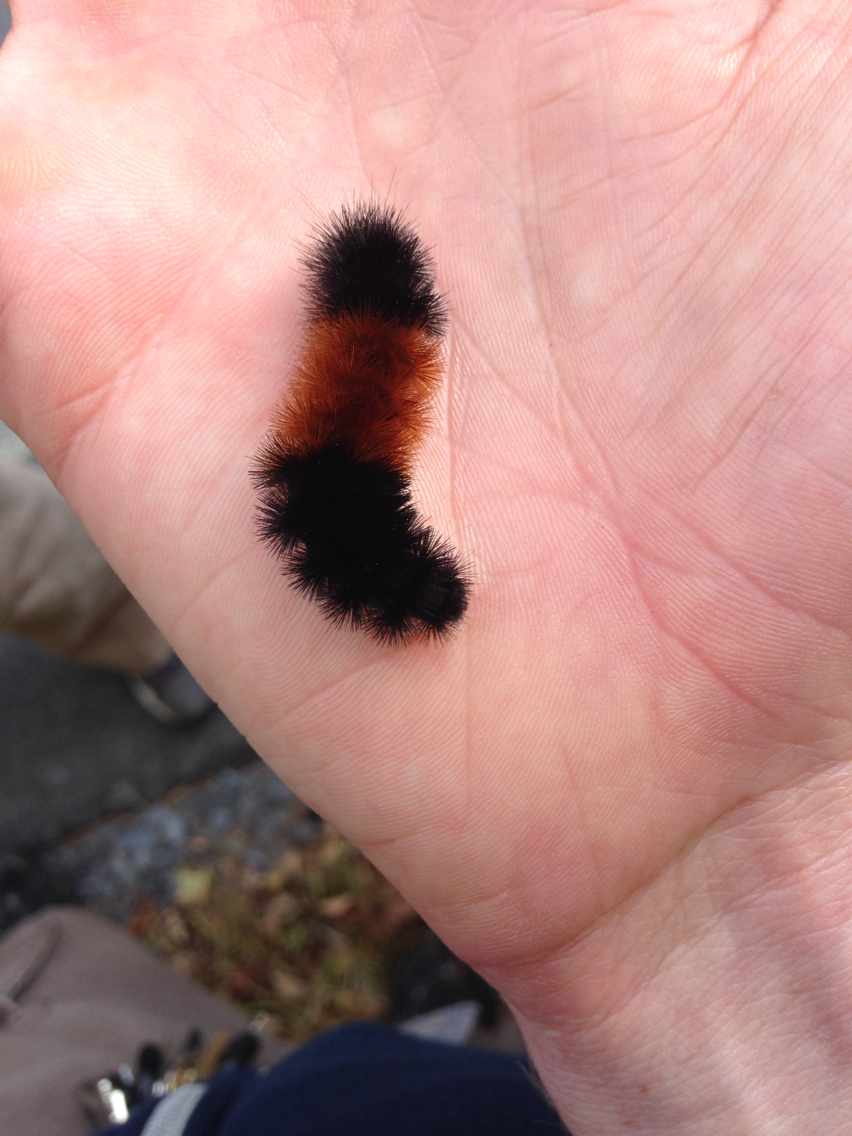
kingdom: Animalia
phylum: Arthropoda
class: Insecta
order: Lepidoptera
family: Erebidae
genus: Pyrrharctia
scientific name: Pyrrharctia isabella
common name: Isabella tiger moth
